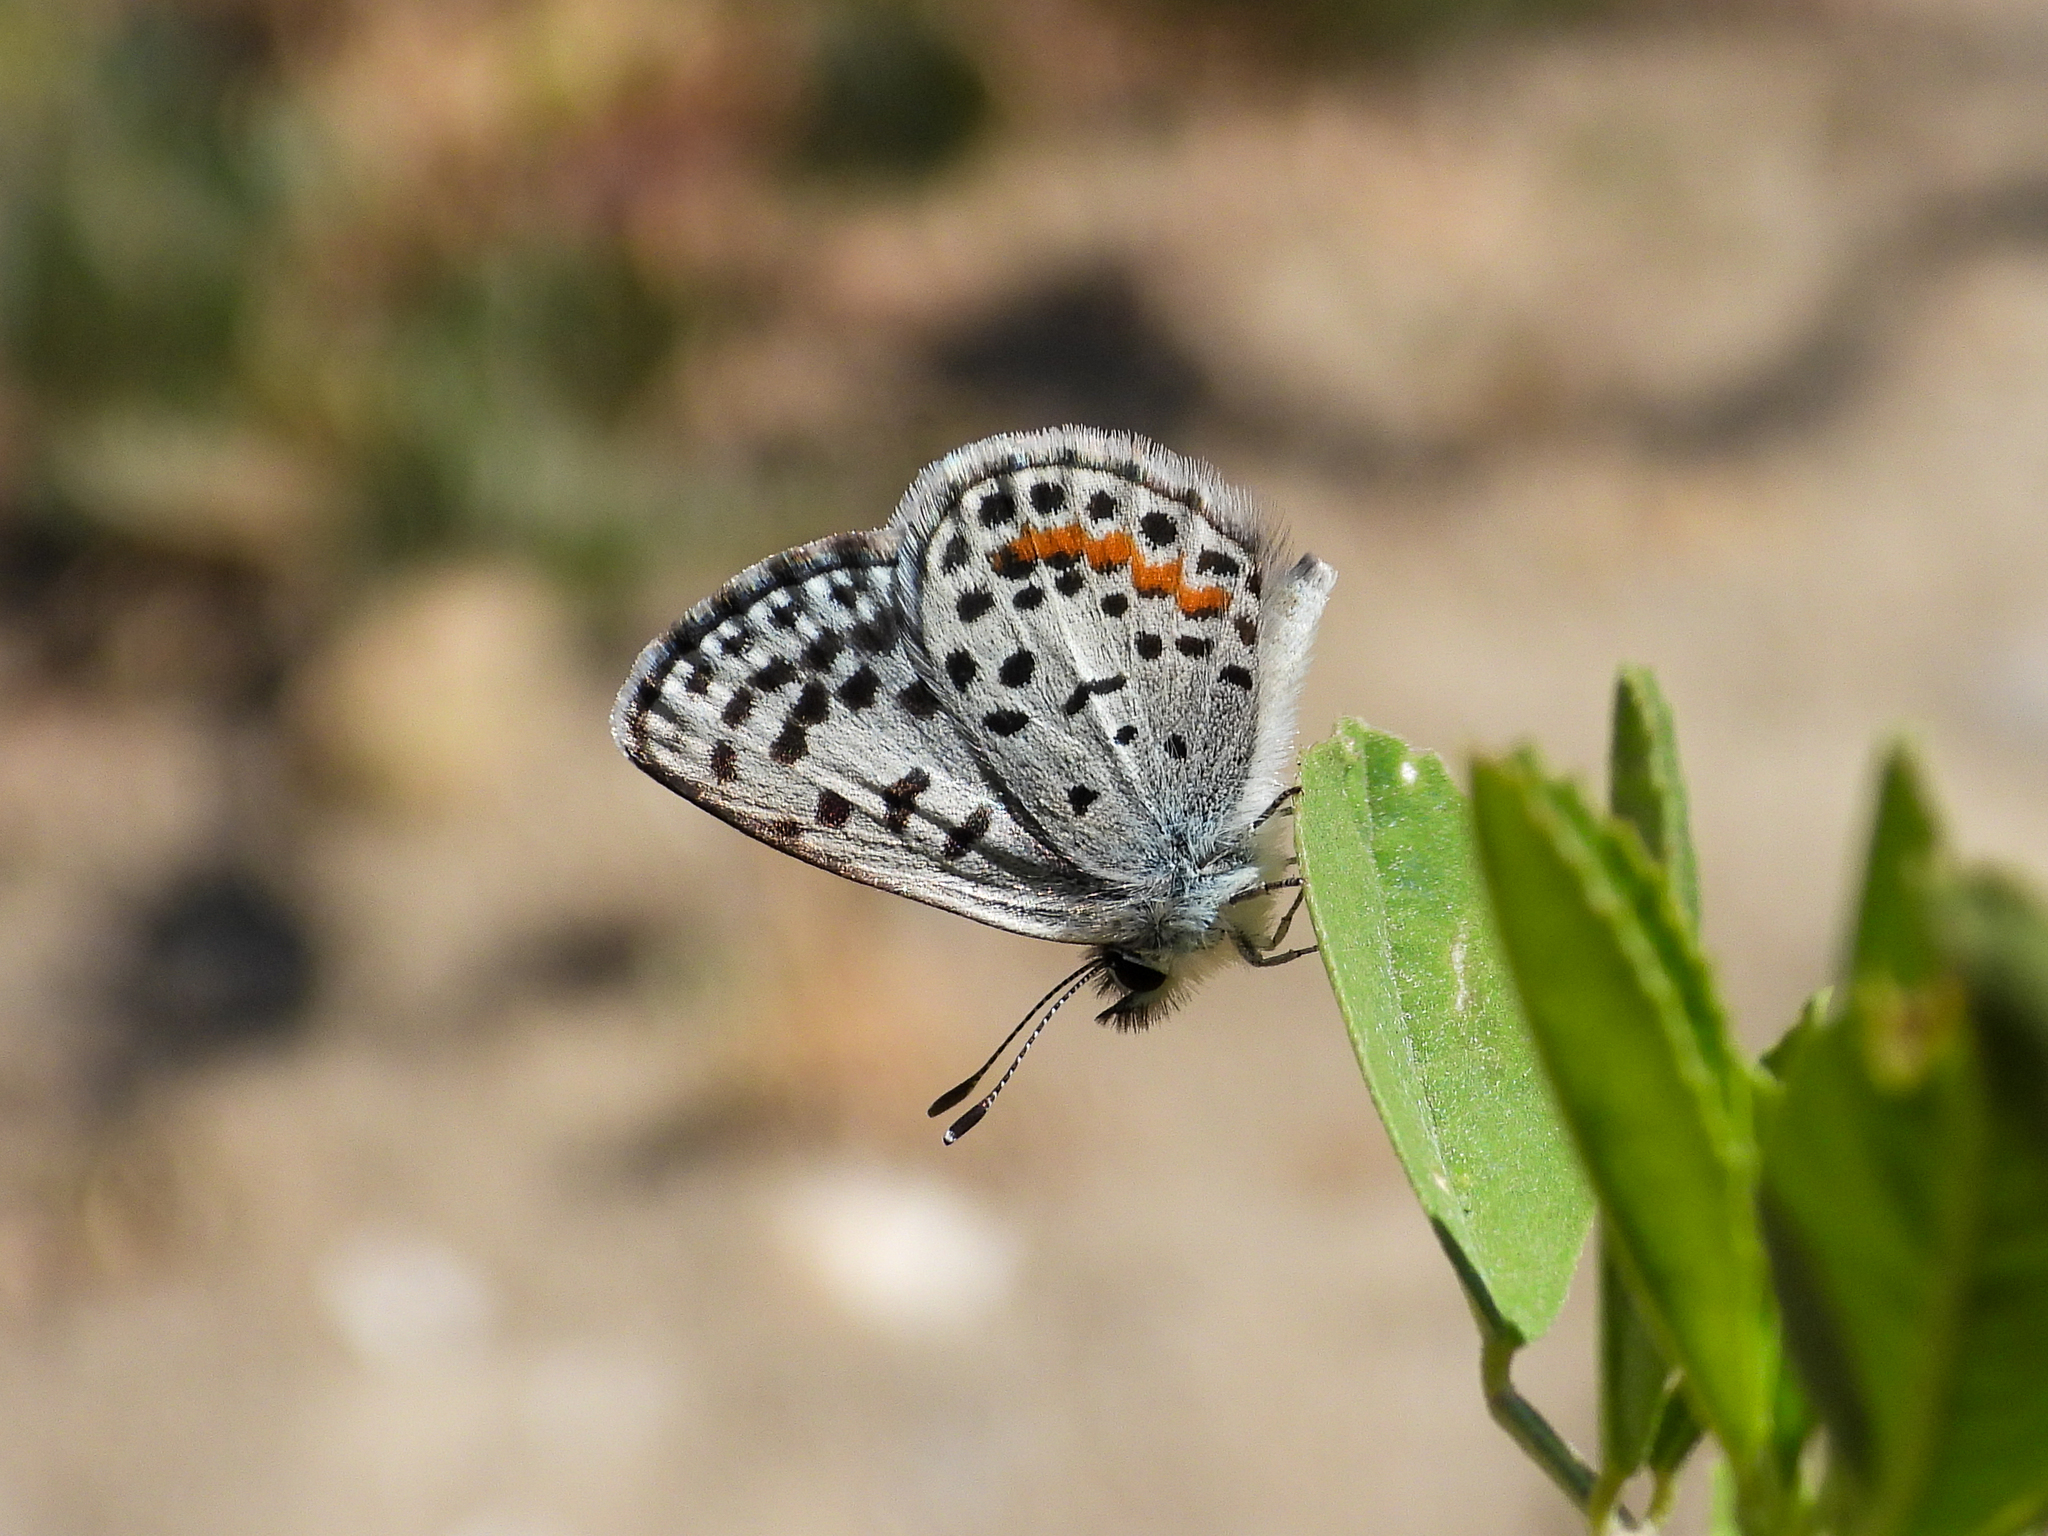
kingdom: Animalia
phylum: Arthropoda
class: Insecta
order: Lepidoptera
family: Lycaenidae
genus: Philotes
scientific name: Philotes bernardino
